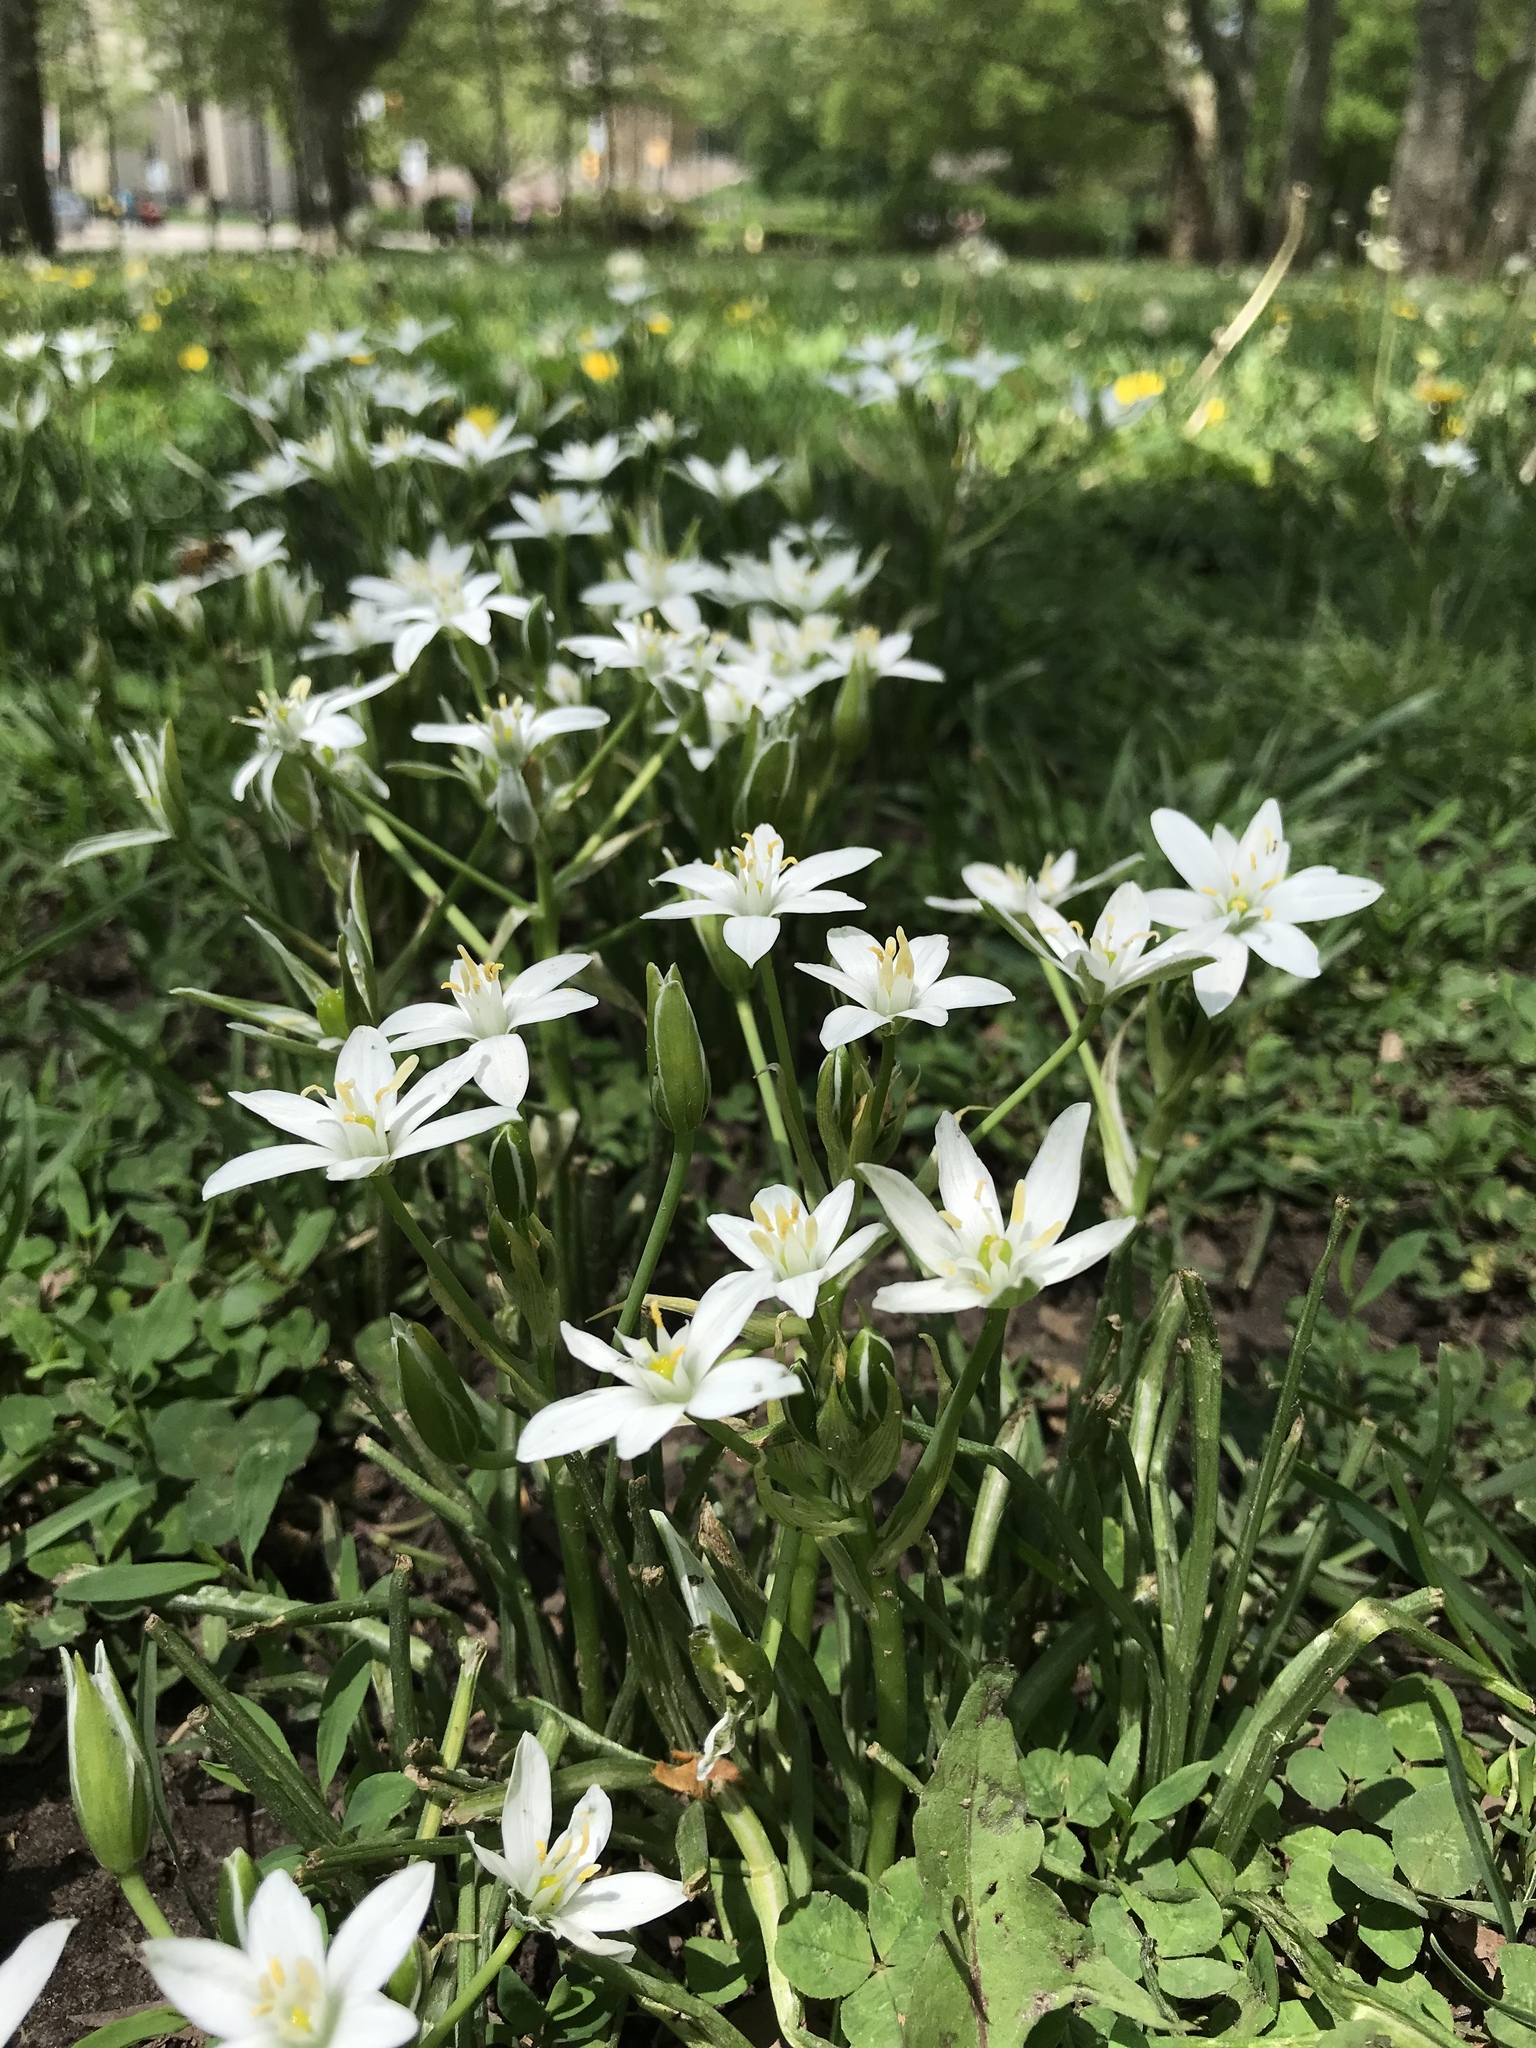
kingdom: Plantae
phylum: Tracheophyta
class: Liliopsida
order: Asparagales
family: Asparagaceae
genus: Ornithogalum
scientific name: Ornithogalum umbellatum
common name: Garden star-of-bethlehem
